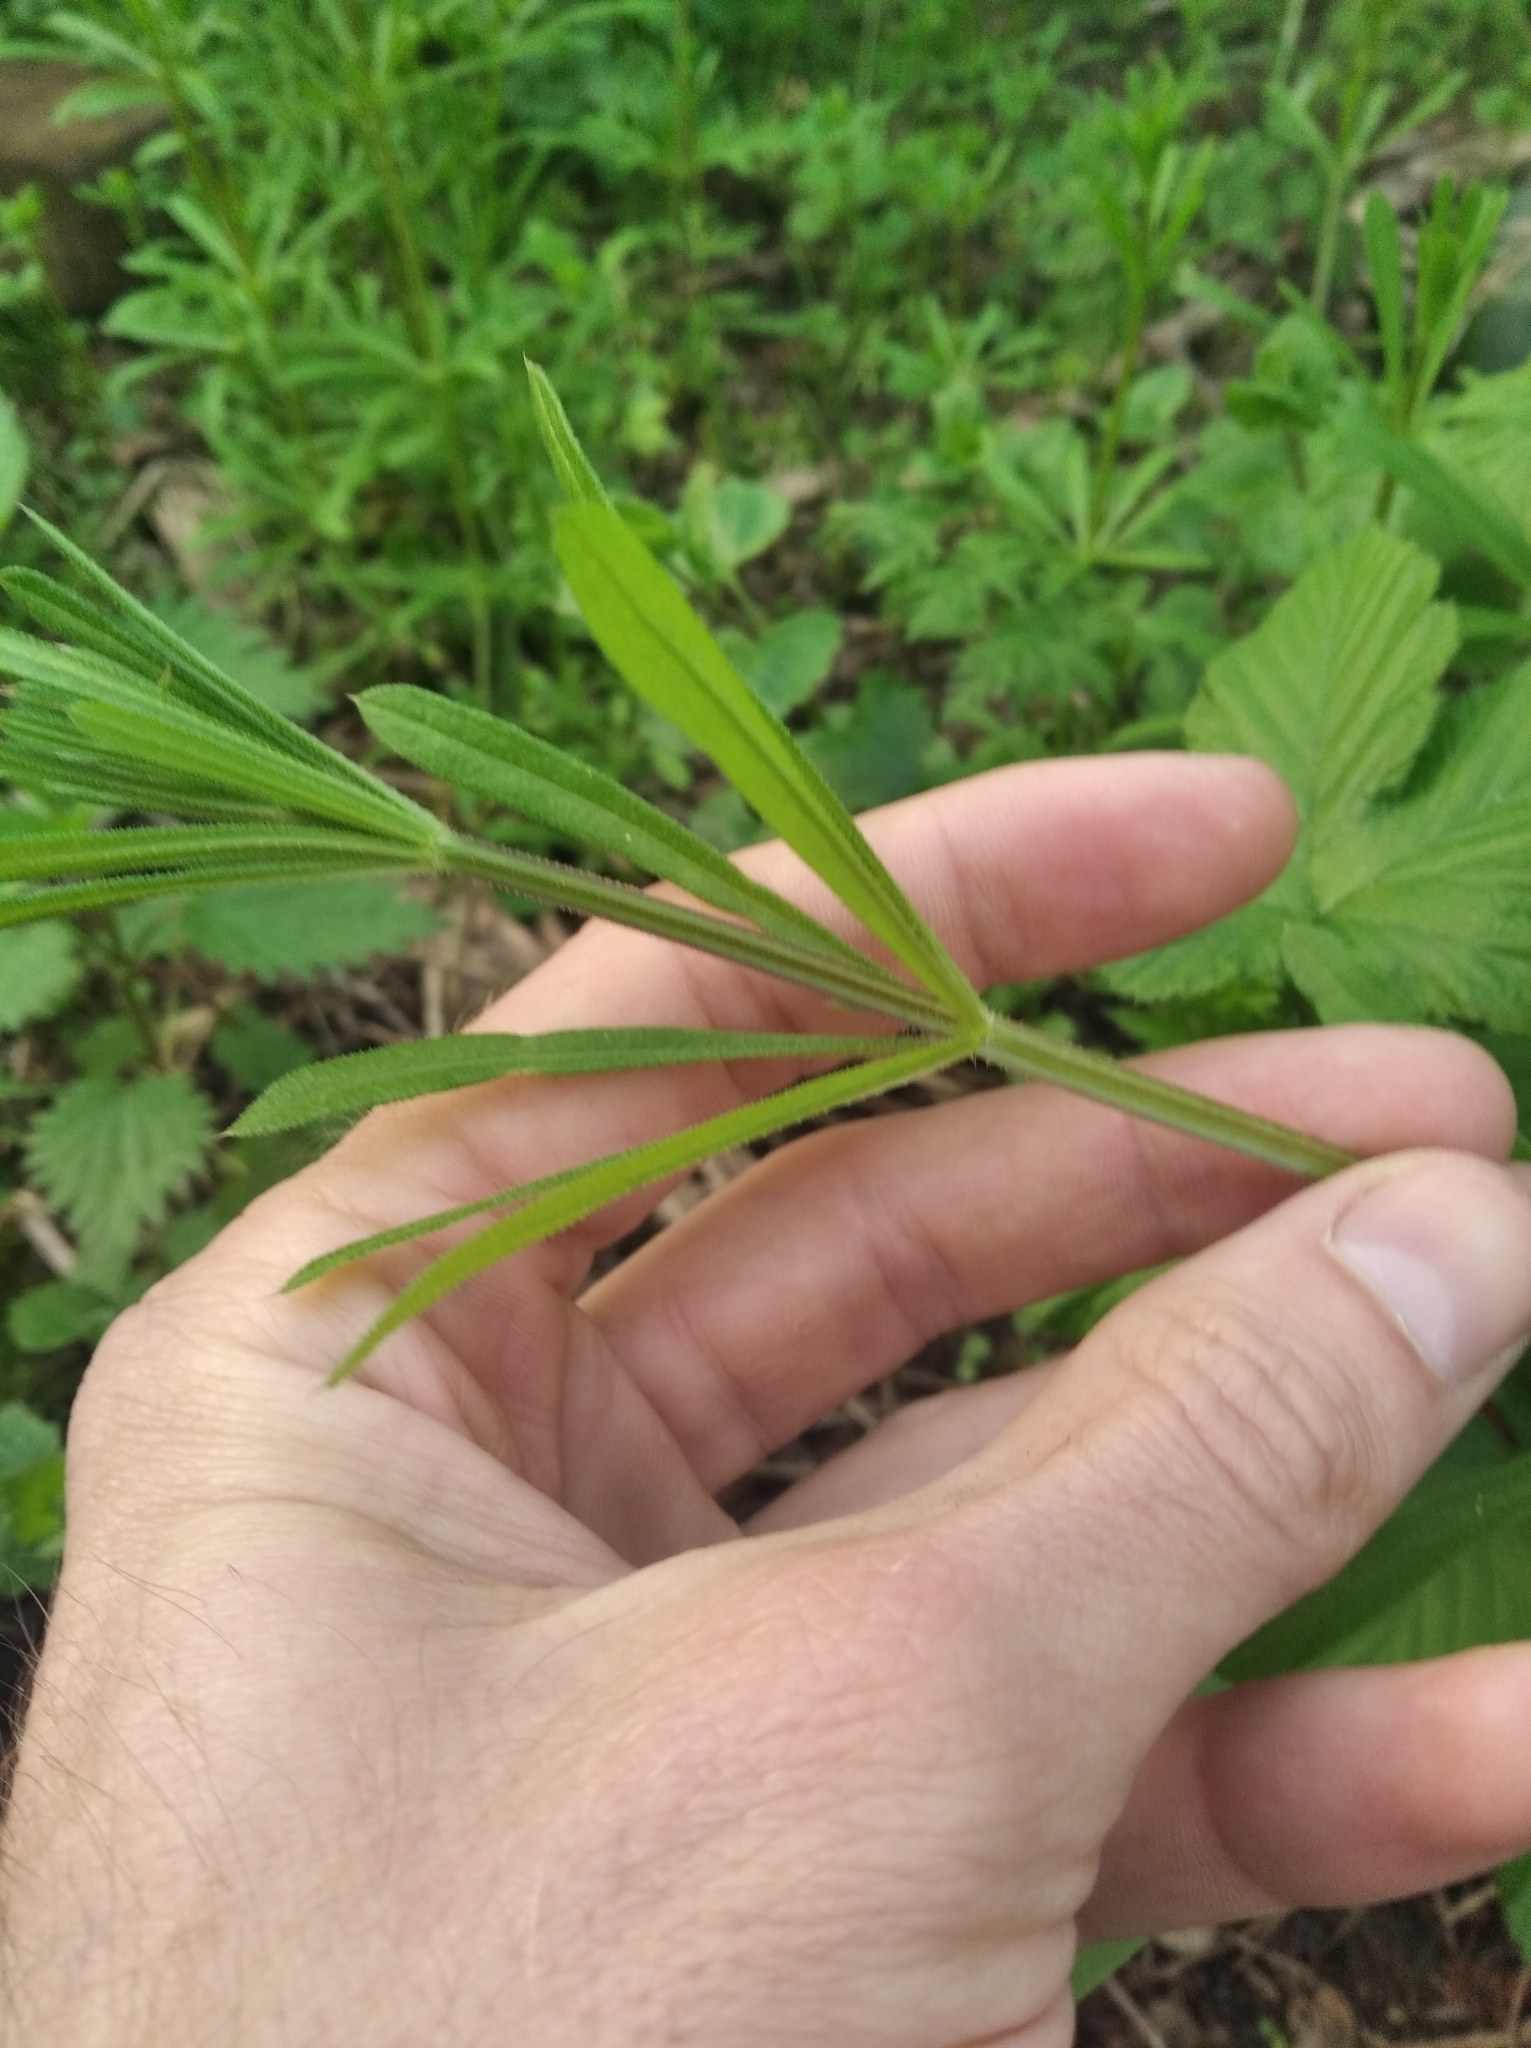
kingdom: Plantae
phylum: Tracheophyta
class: Magnoliopsida
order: Gentianales
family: Rubiaceae
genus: Galium
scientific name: Galium aparine
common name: Cleavers
